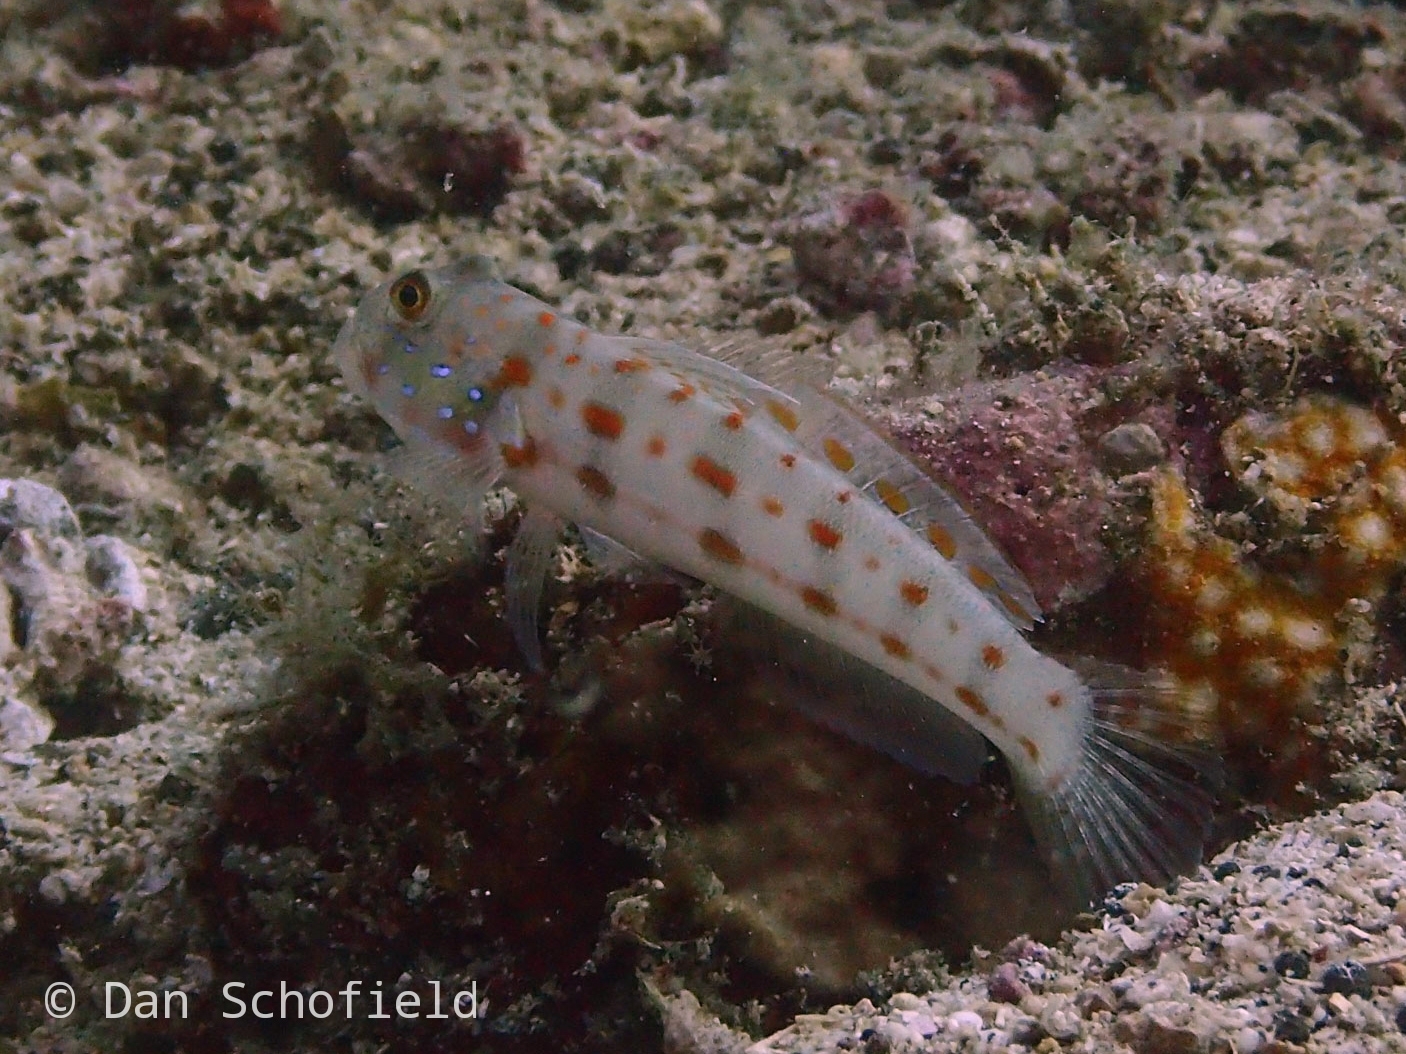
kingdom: Animalia
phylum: Chordata
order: Perciformes
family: Gobiidae
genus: Valenciennea
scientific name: Valenciennea puellaris
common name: Orange-dashed goby
